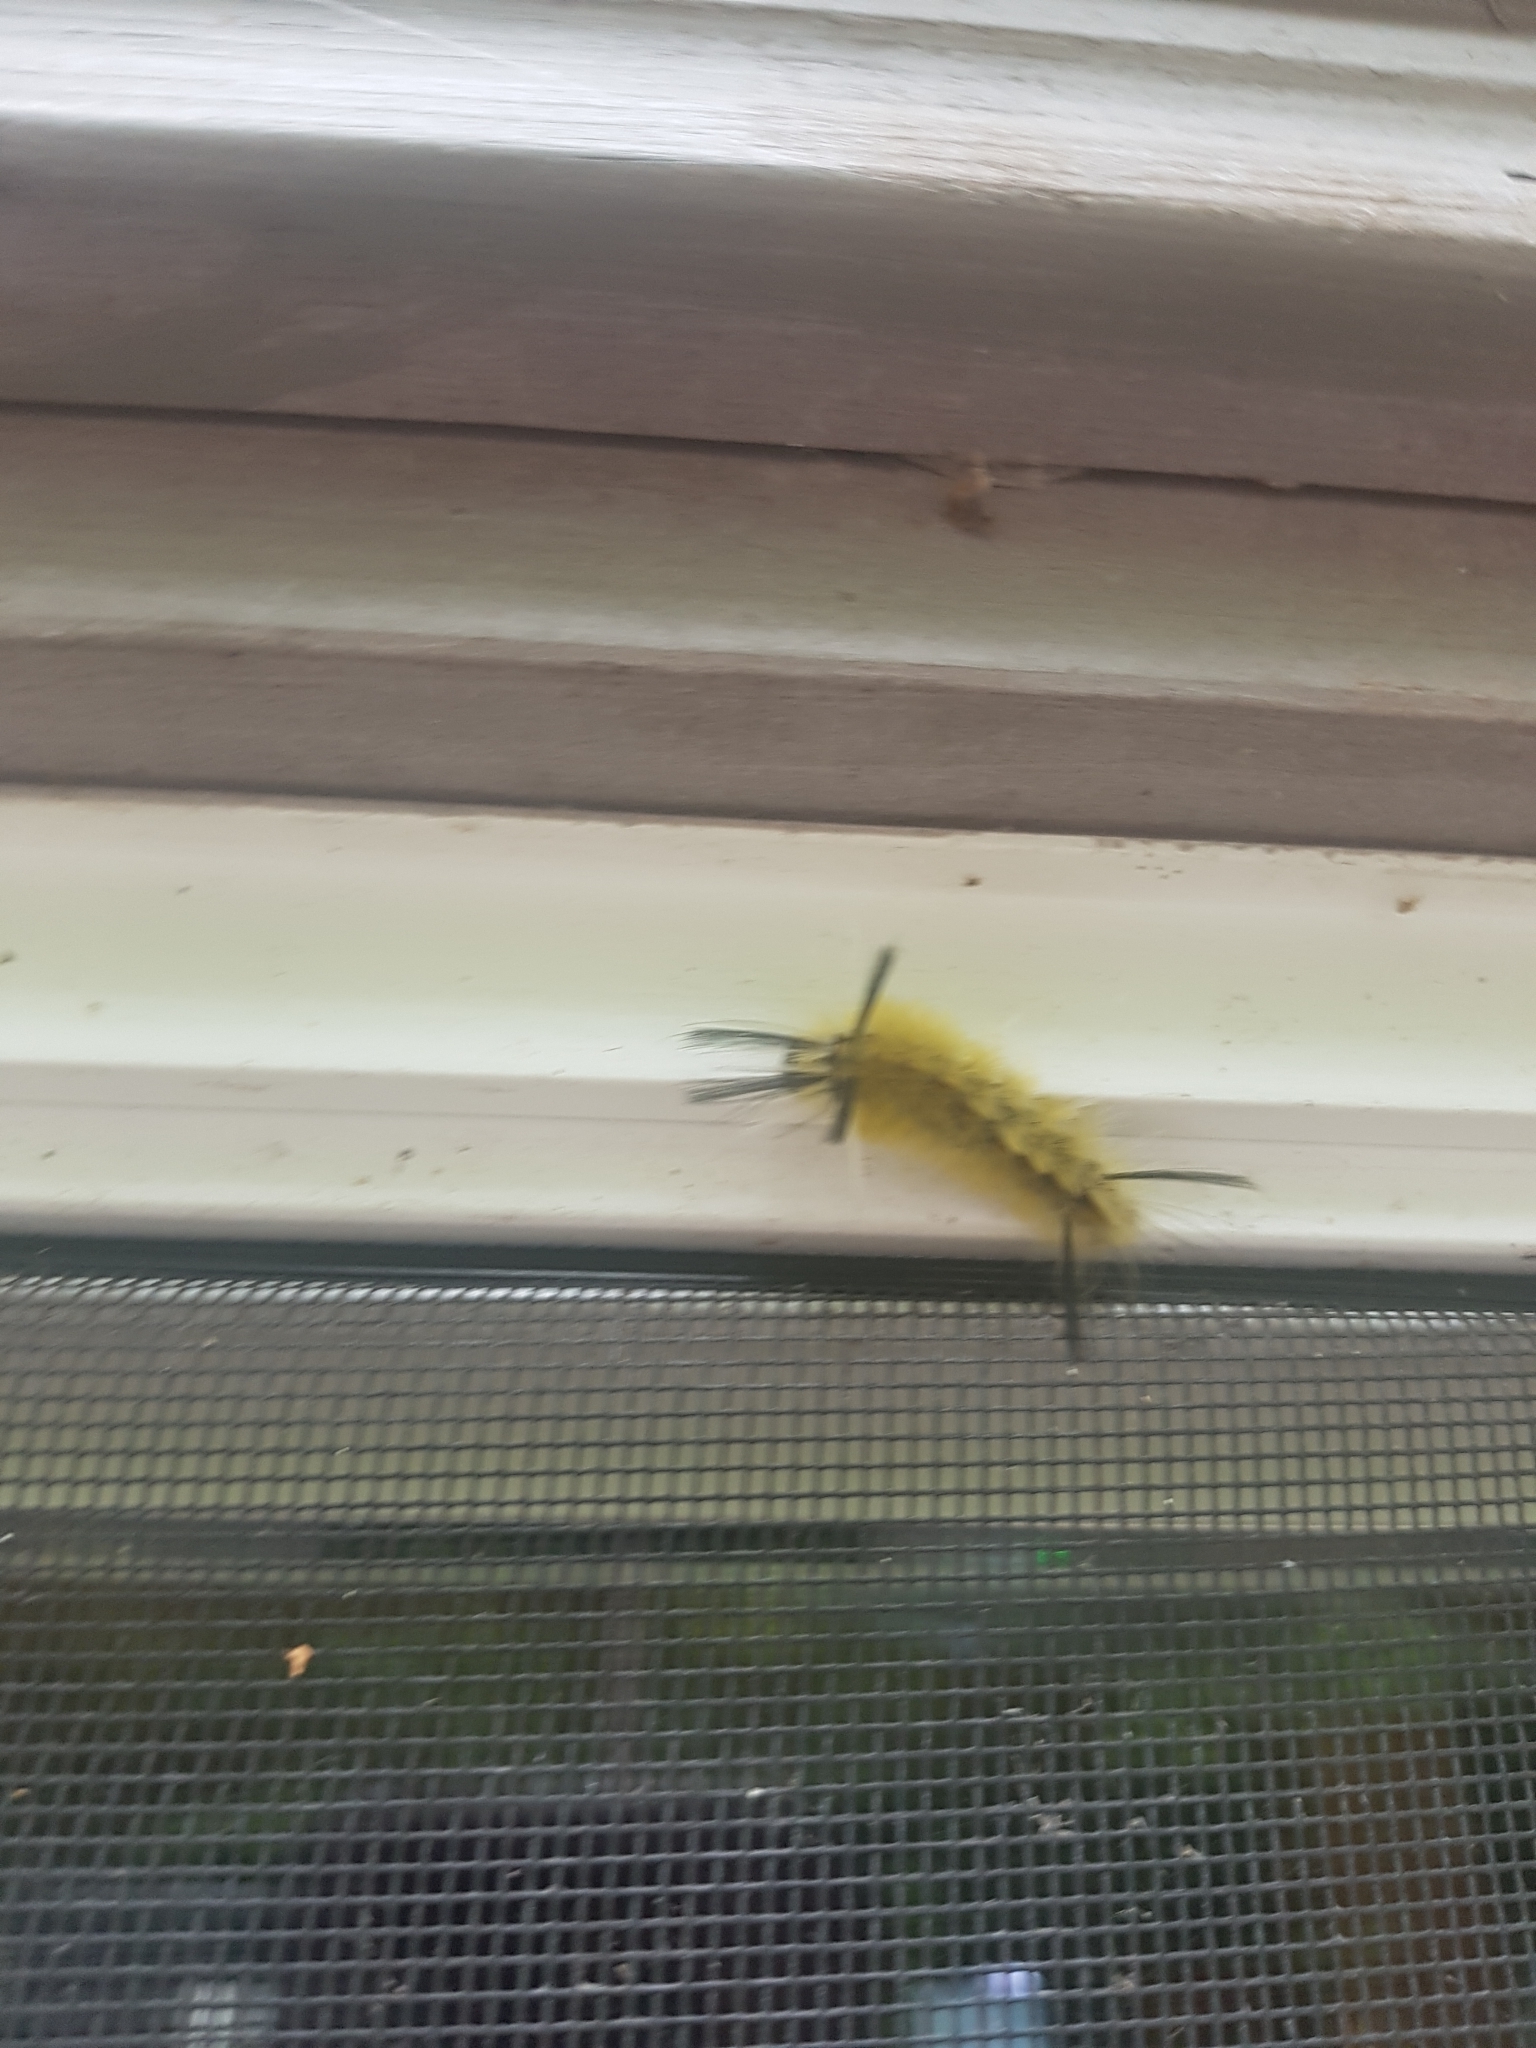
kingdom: Animalia
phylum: Arthropoda
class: Insecta
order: Lepidoptera
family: Erebidae
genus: Halysidota
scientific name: Halysidota tessellaris
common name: Banded tussock moth
